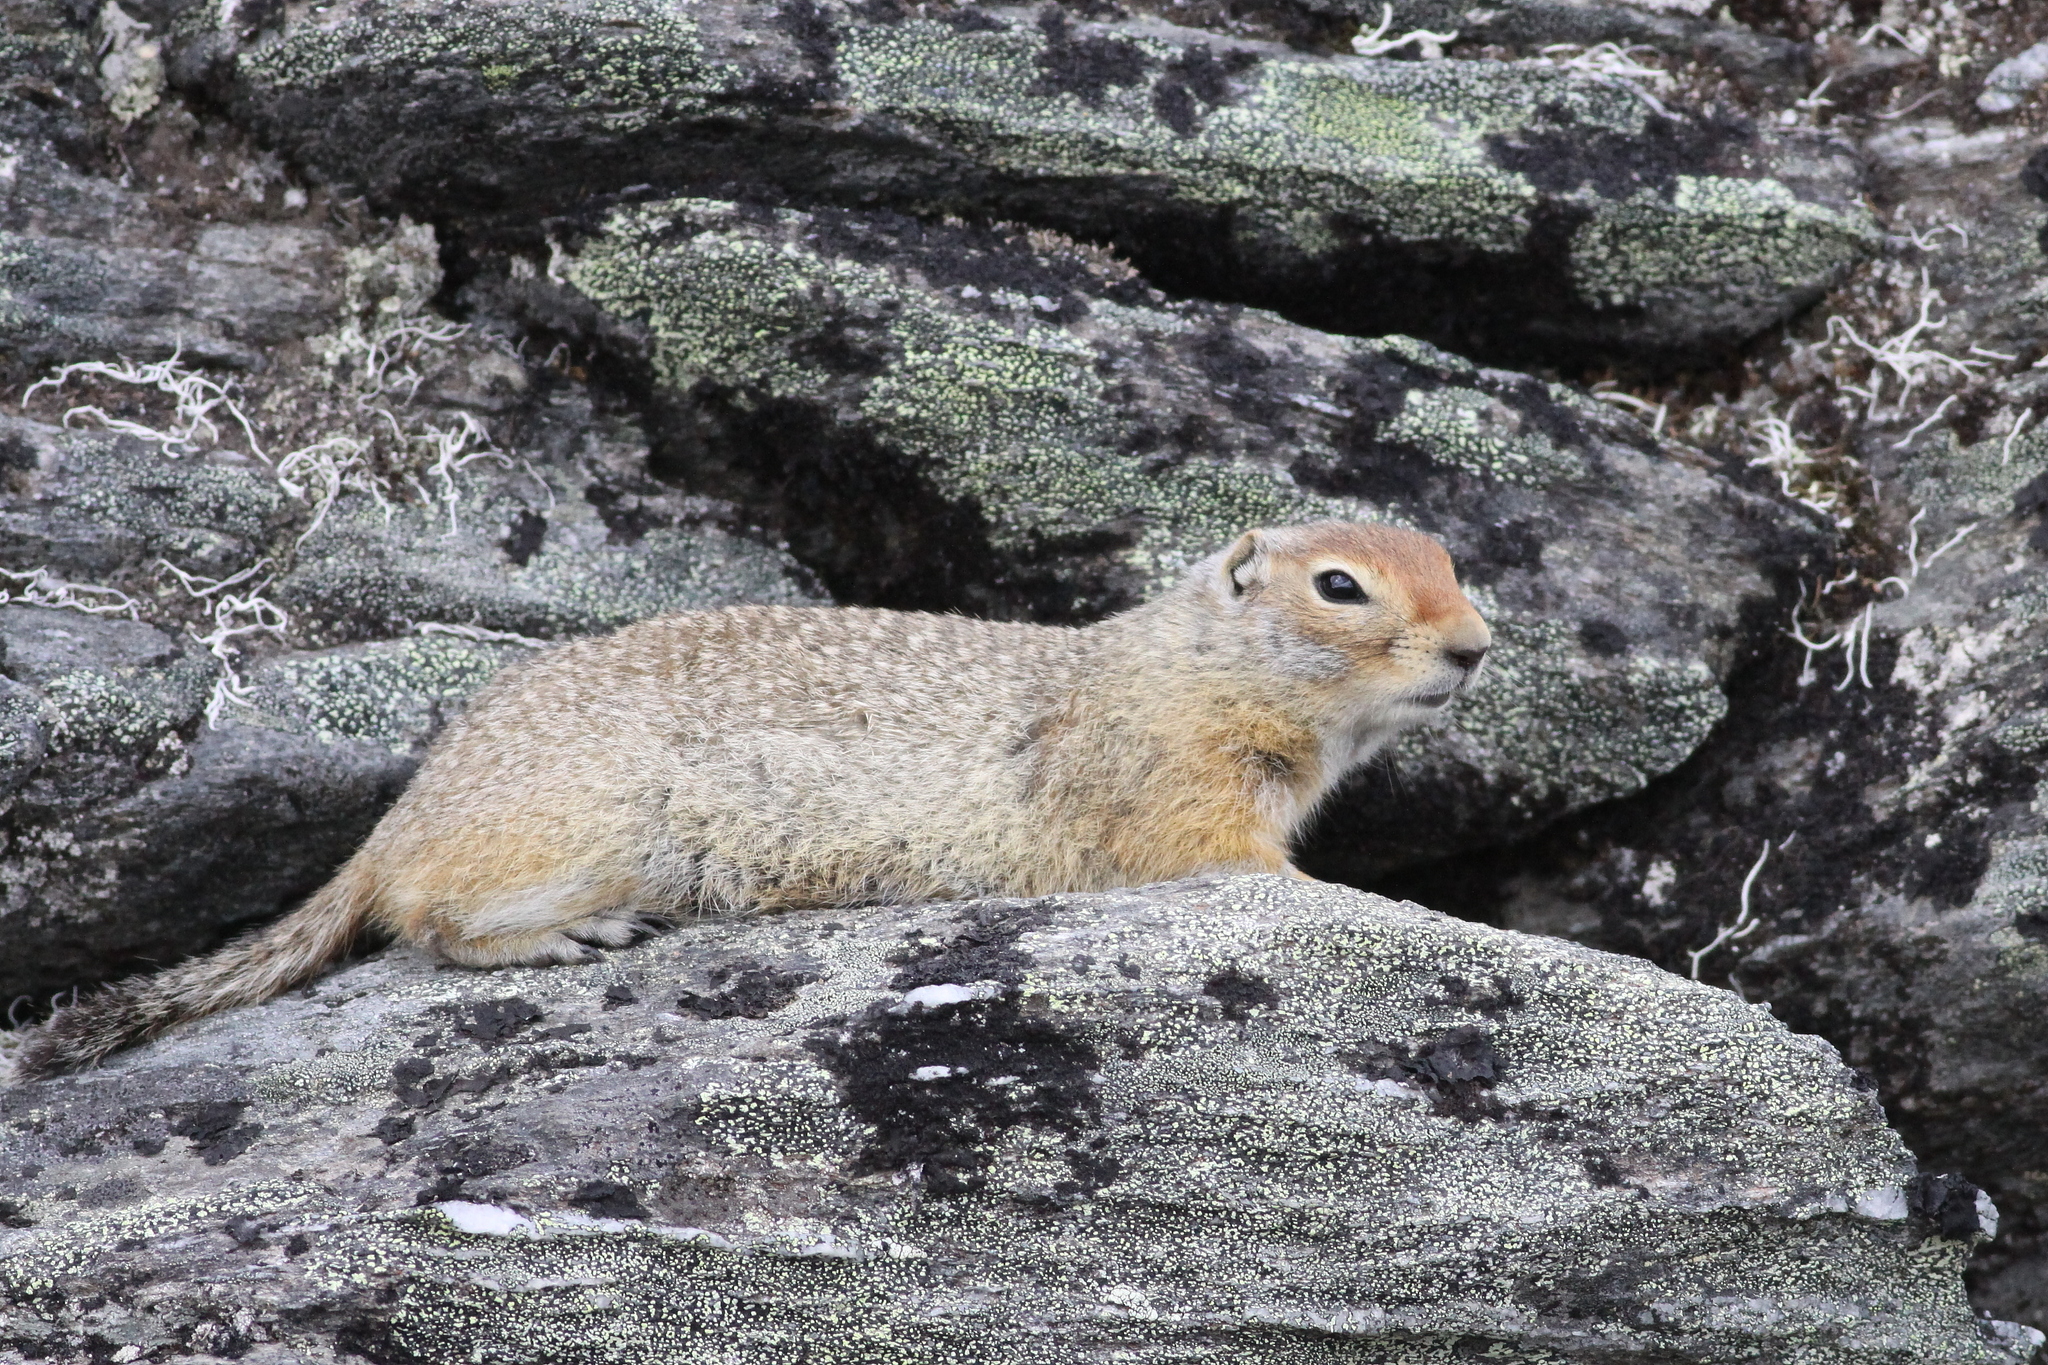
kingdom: Animalia
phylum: Chordata
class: Mammalia
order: Rodentia
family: Sciuridae
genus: Urocitellus
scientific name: Urocitellus parryii
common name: Arctic ground squirrel
